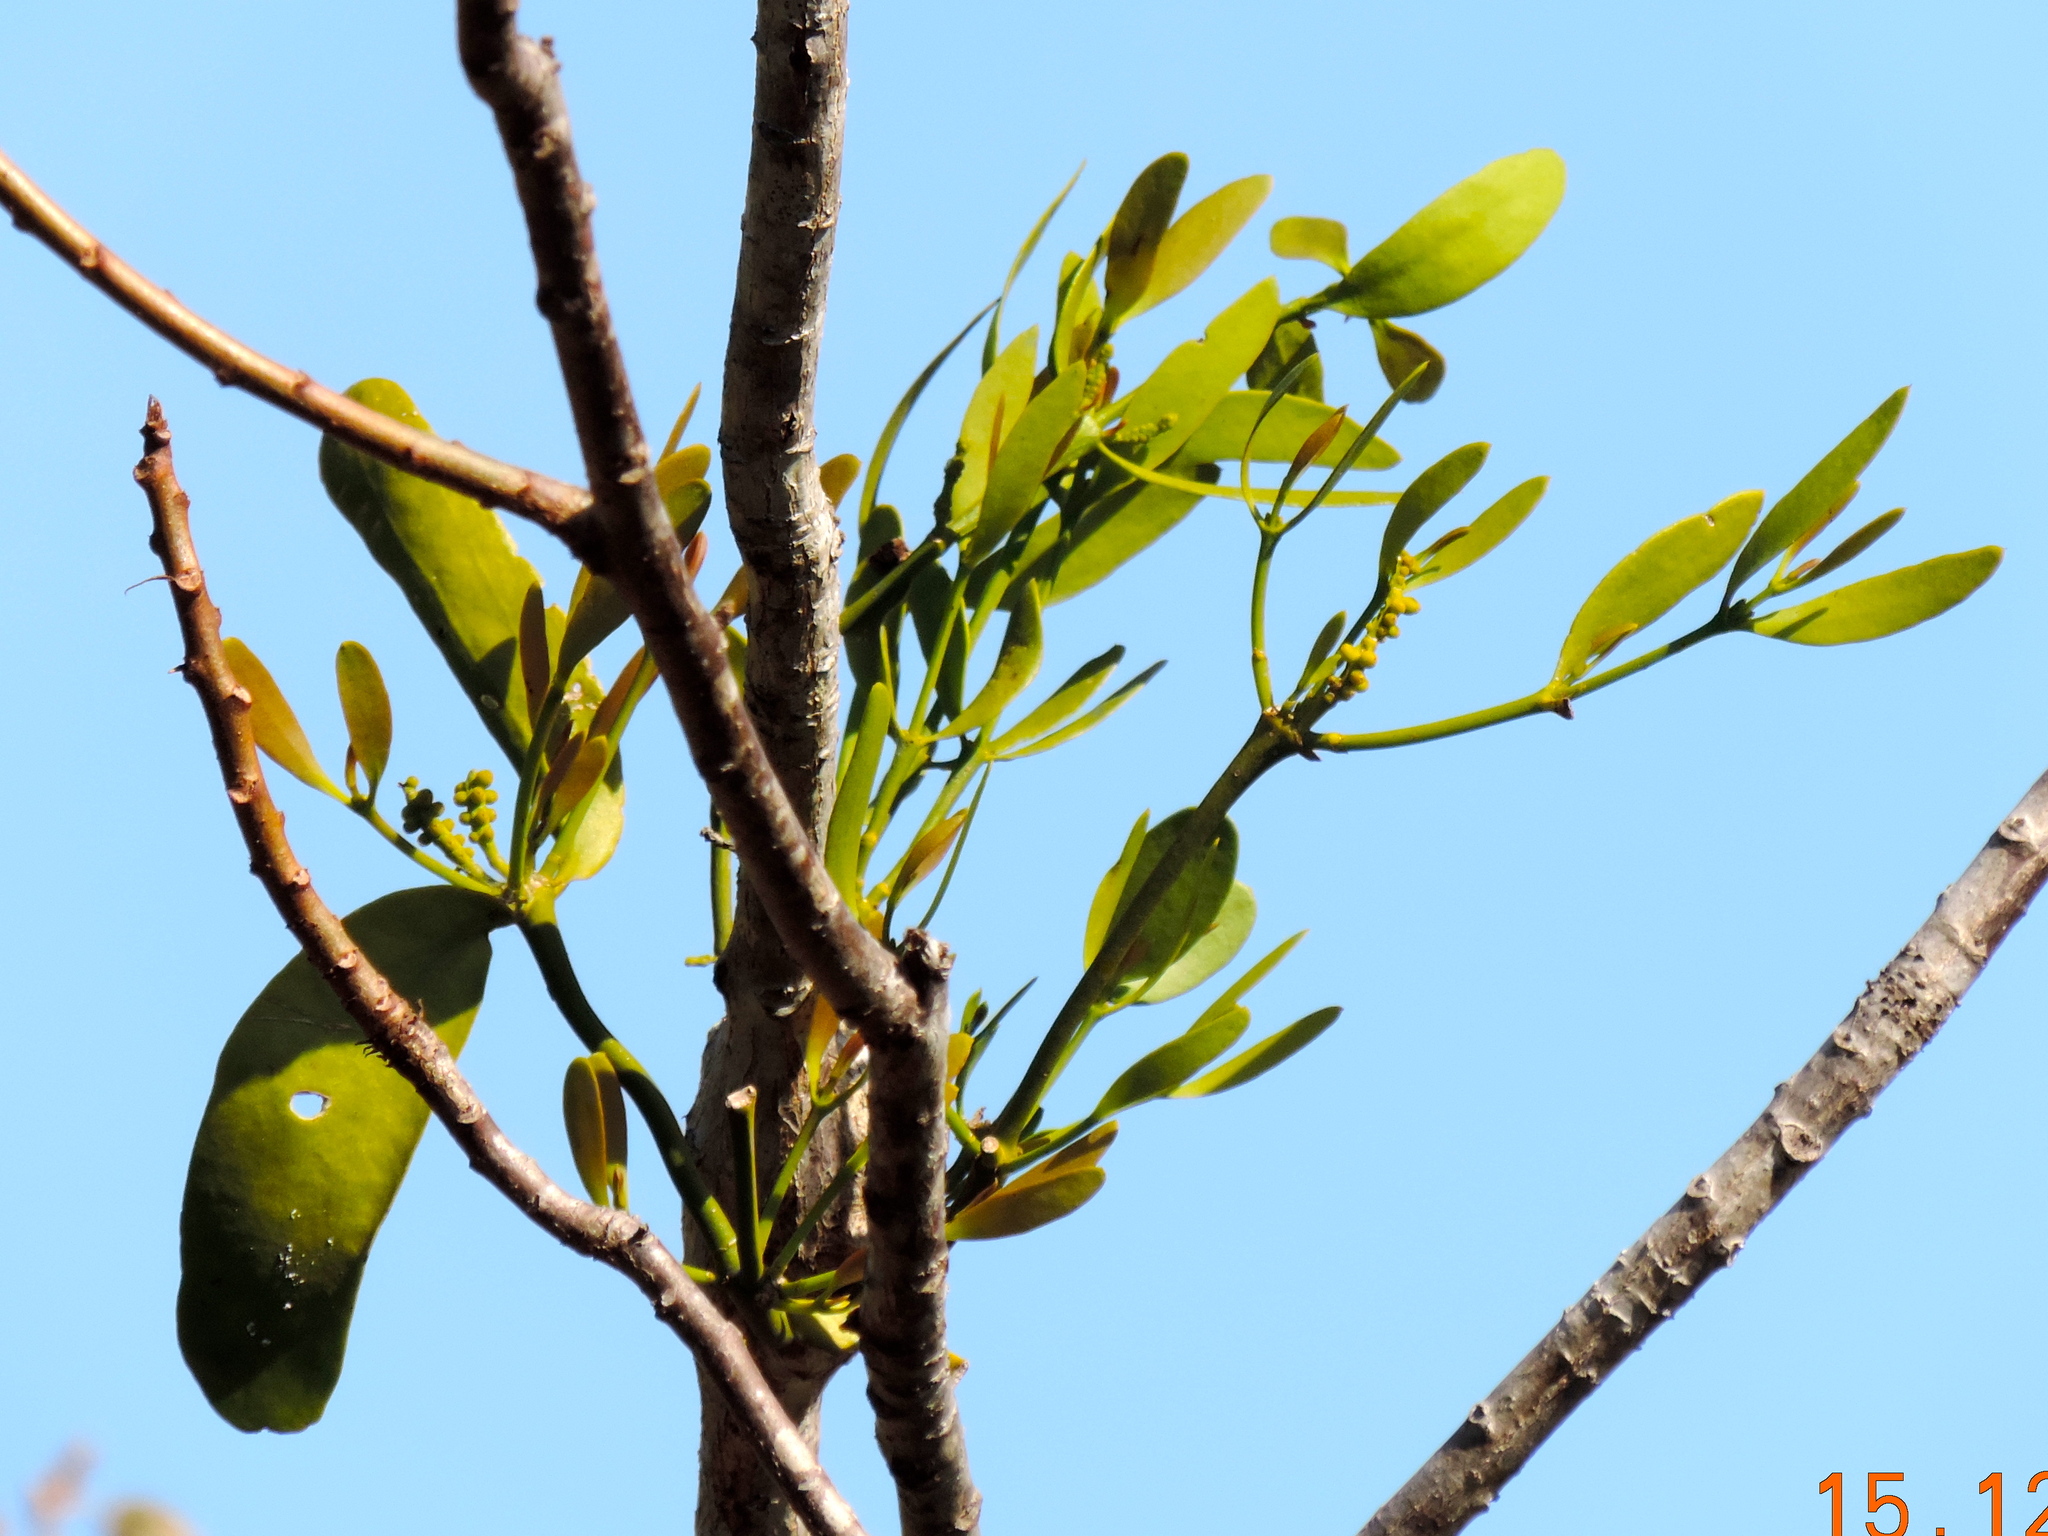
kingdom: Plantae
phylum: Tracheophyta
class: Magnoliopsida
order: Santalales
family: Viscaceae
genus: Phoradendron
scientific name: Phoradendron quadrangulare
